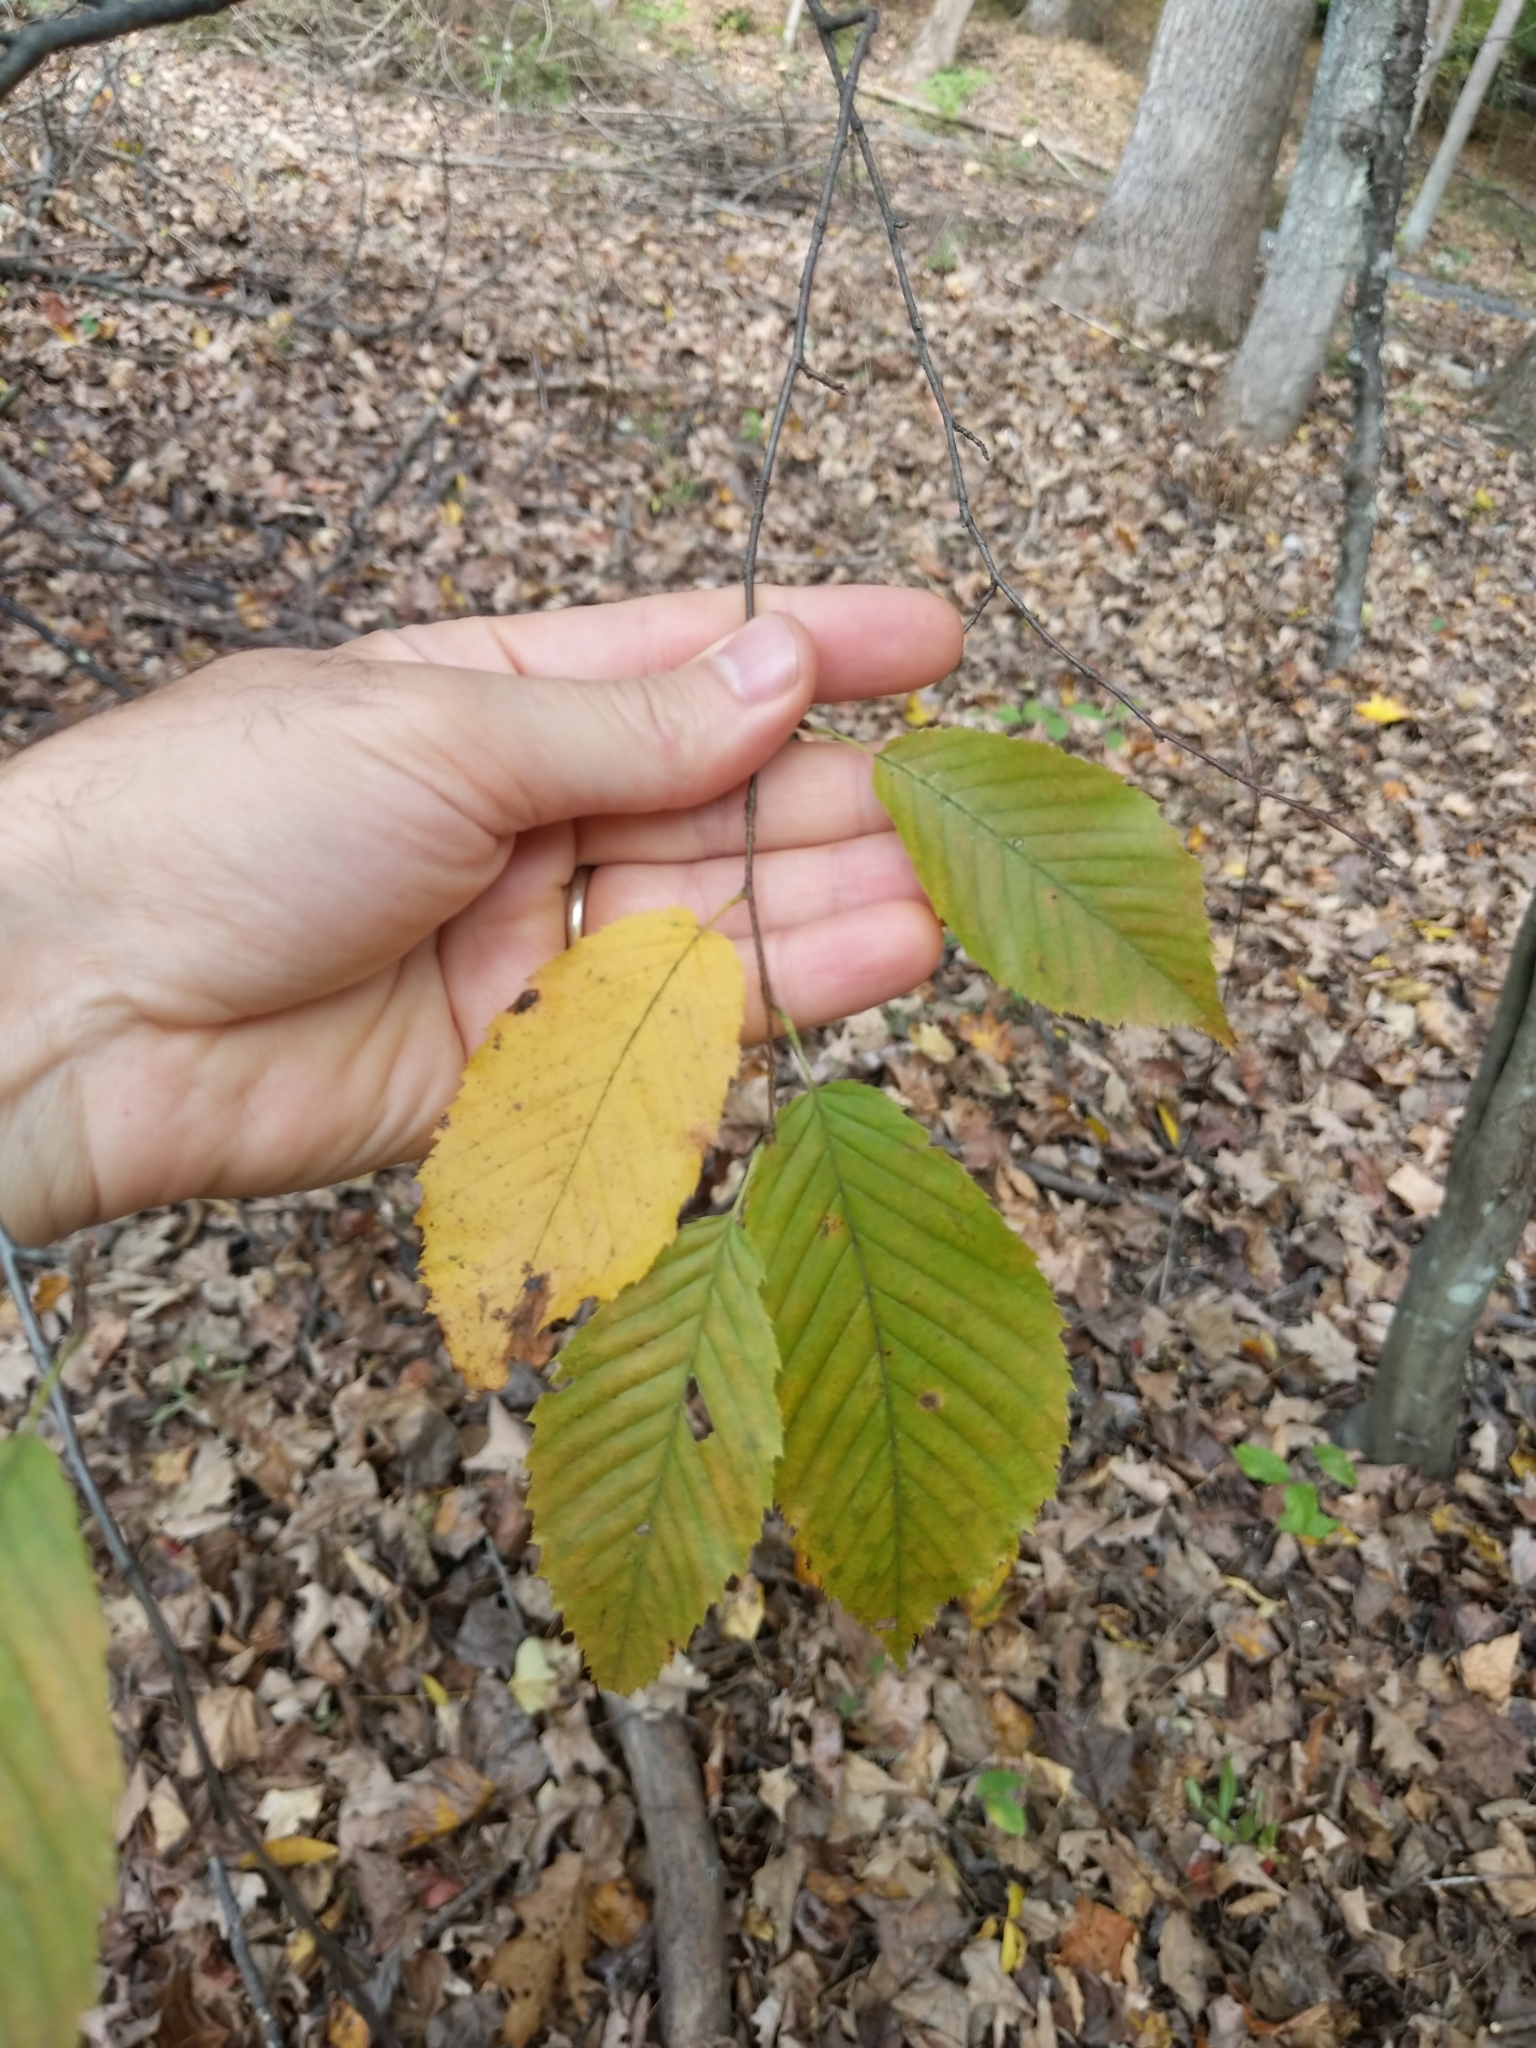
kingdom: Plantae
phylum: Tracheophyta
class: Magnoliopsida
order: Fagales
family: Betulaceae
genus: Carpinus
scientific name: Carpinus caroliniana
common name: American hornbeam
